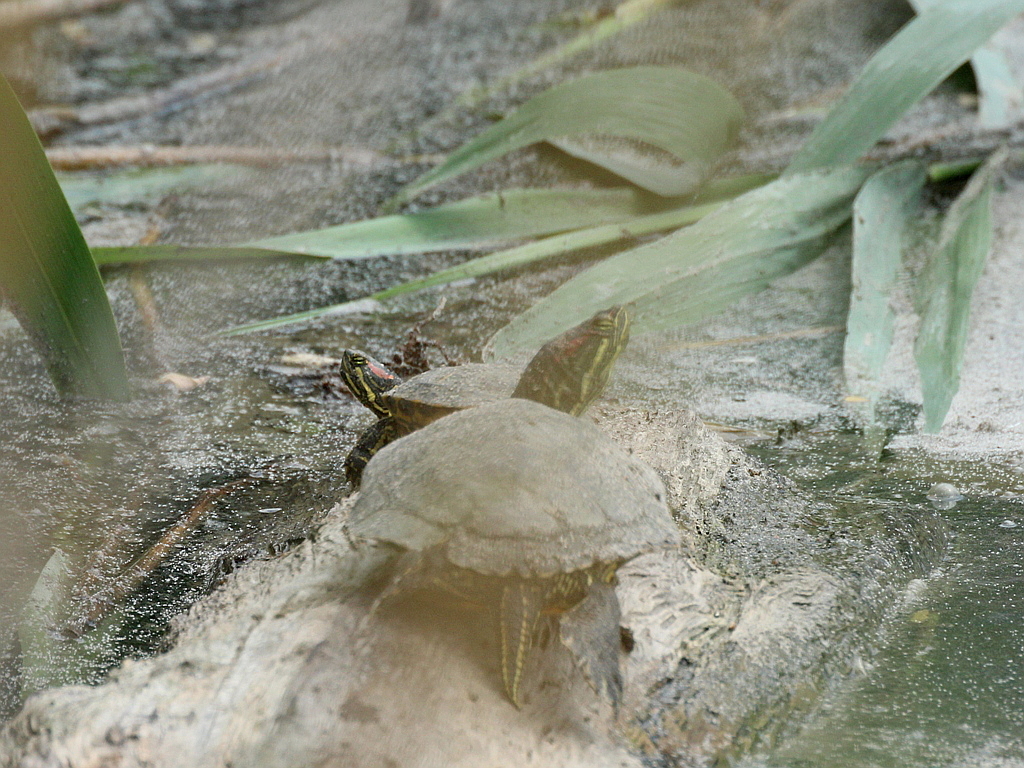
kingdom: Animalia
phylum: Chordata
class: Testudines
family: Emydidae
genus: Trachemys
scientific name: Trachemys scripta
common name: Slider
